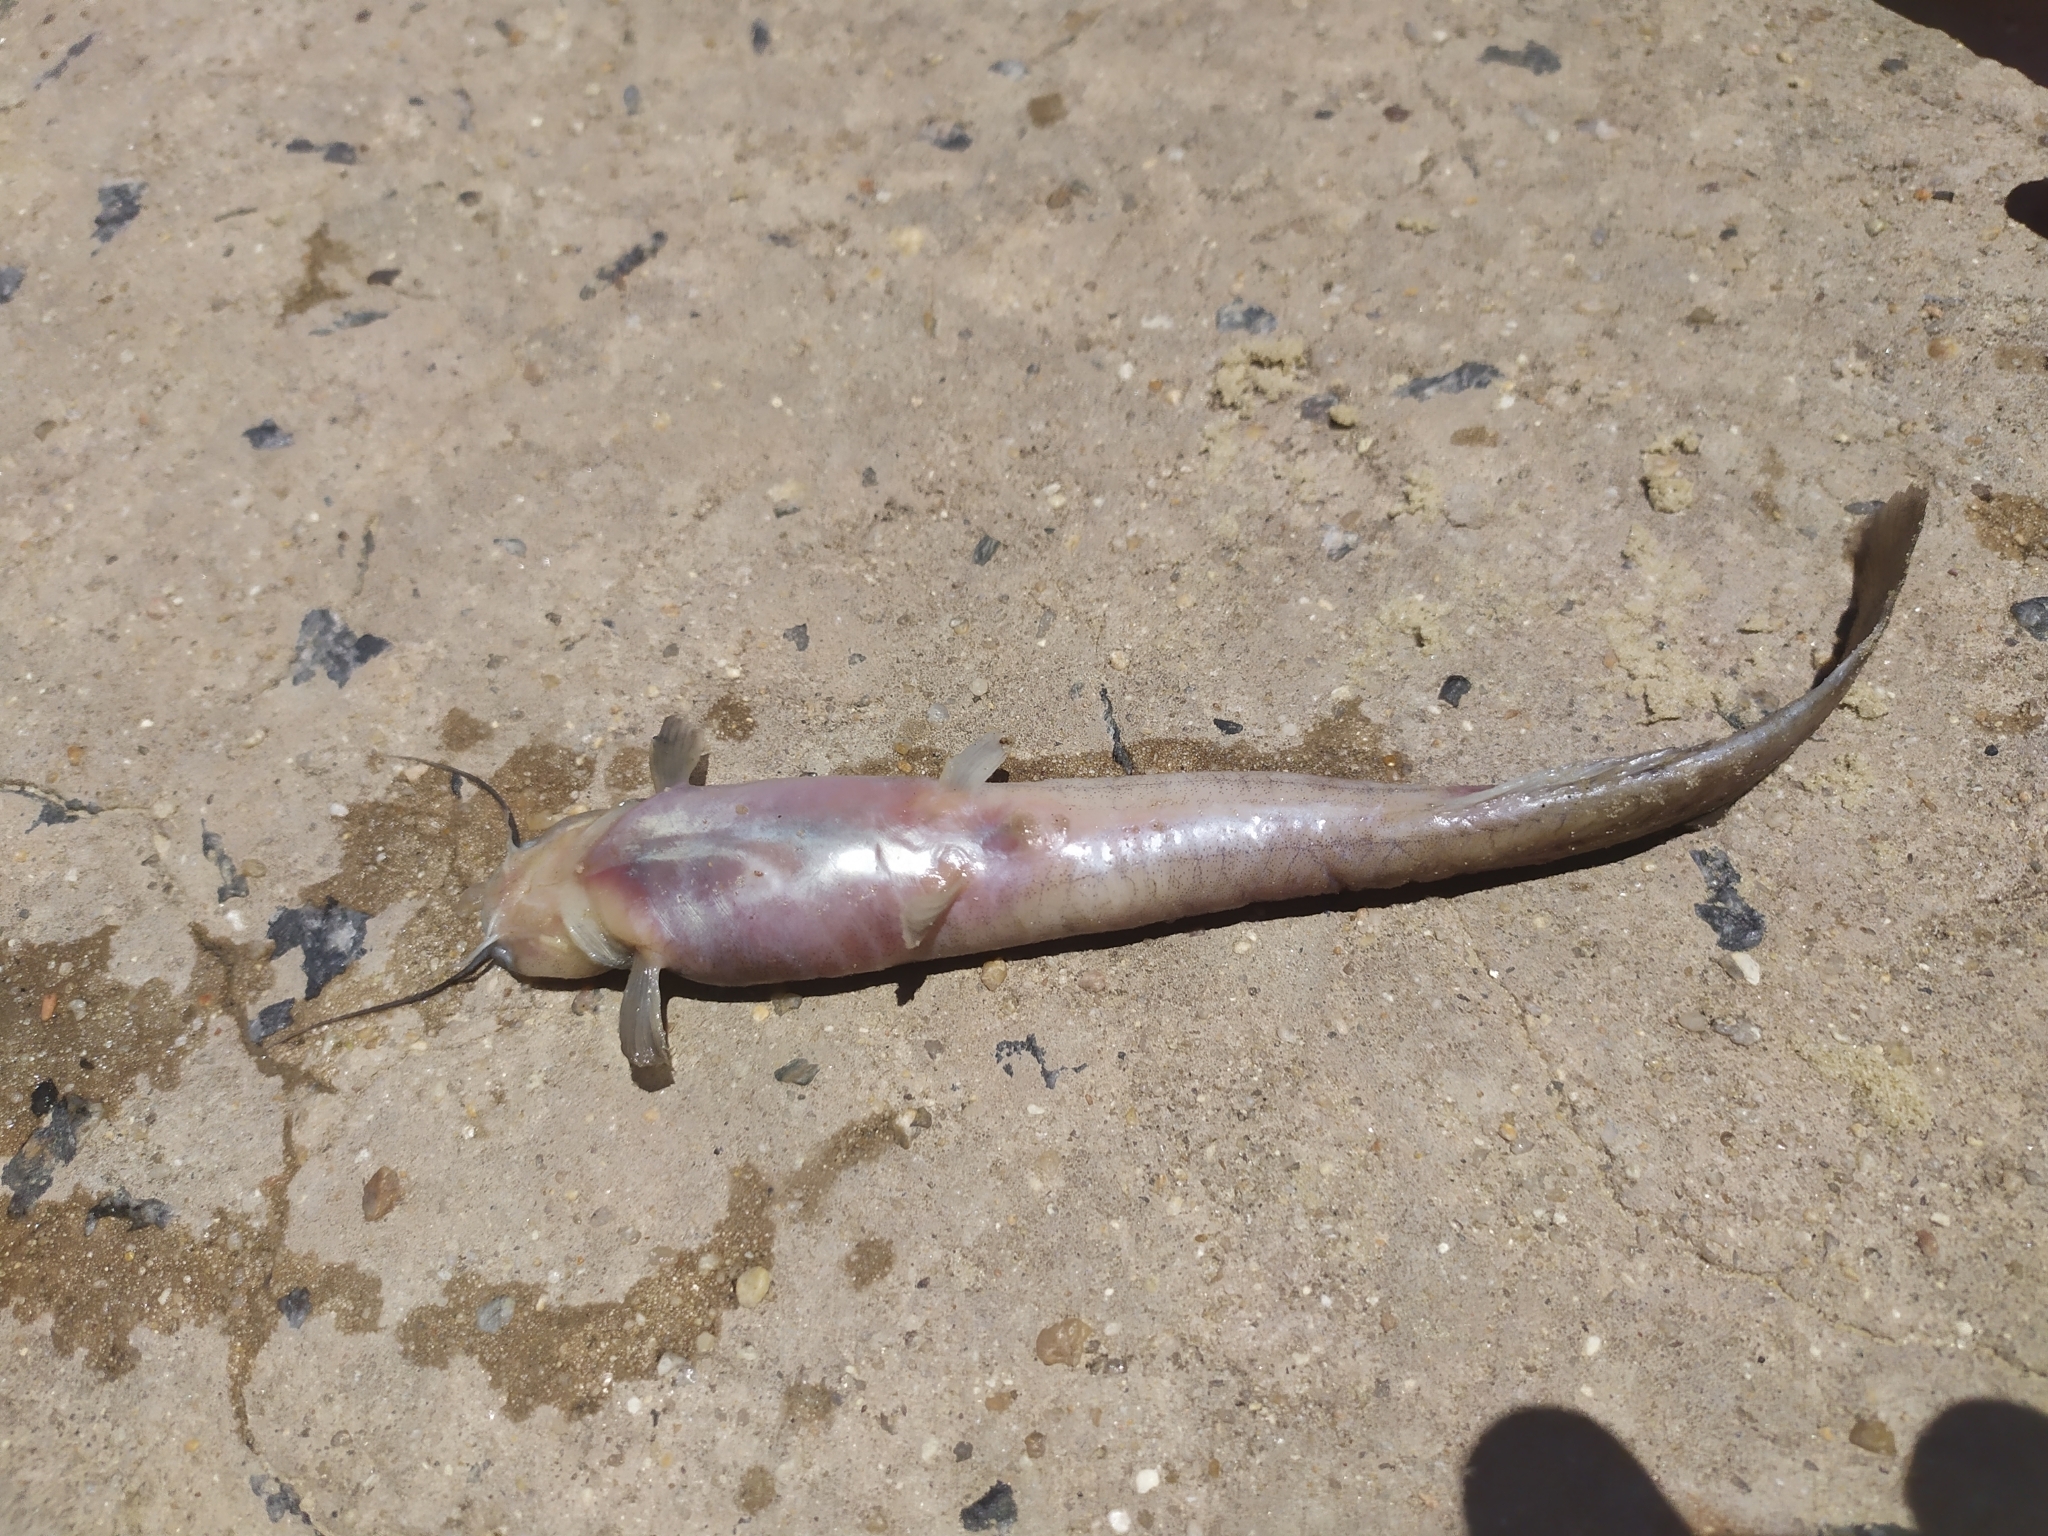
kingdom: Animalia
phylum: Chordata
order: Siluriformes
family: Heptapteridae
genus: Heptapterus
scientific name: Heptapterus mustelinus
